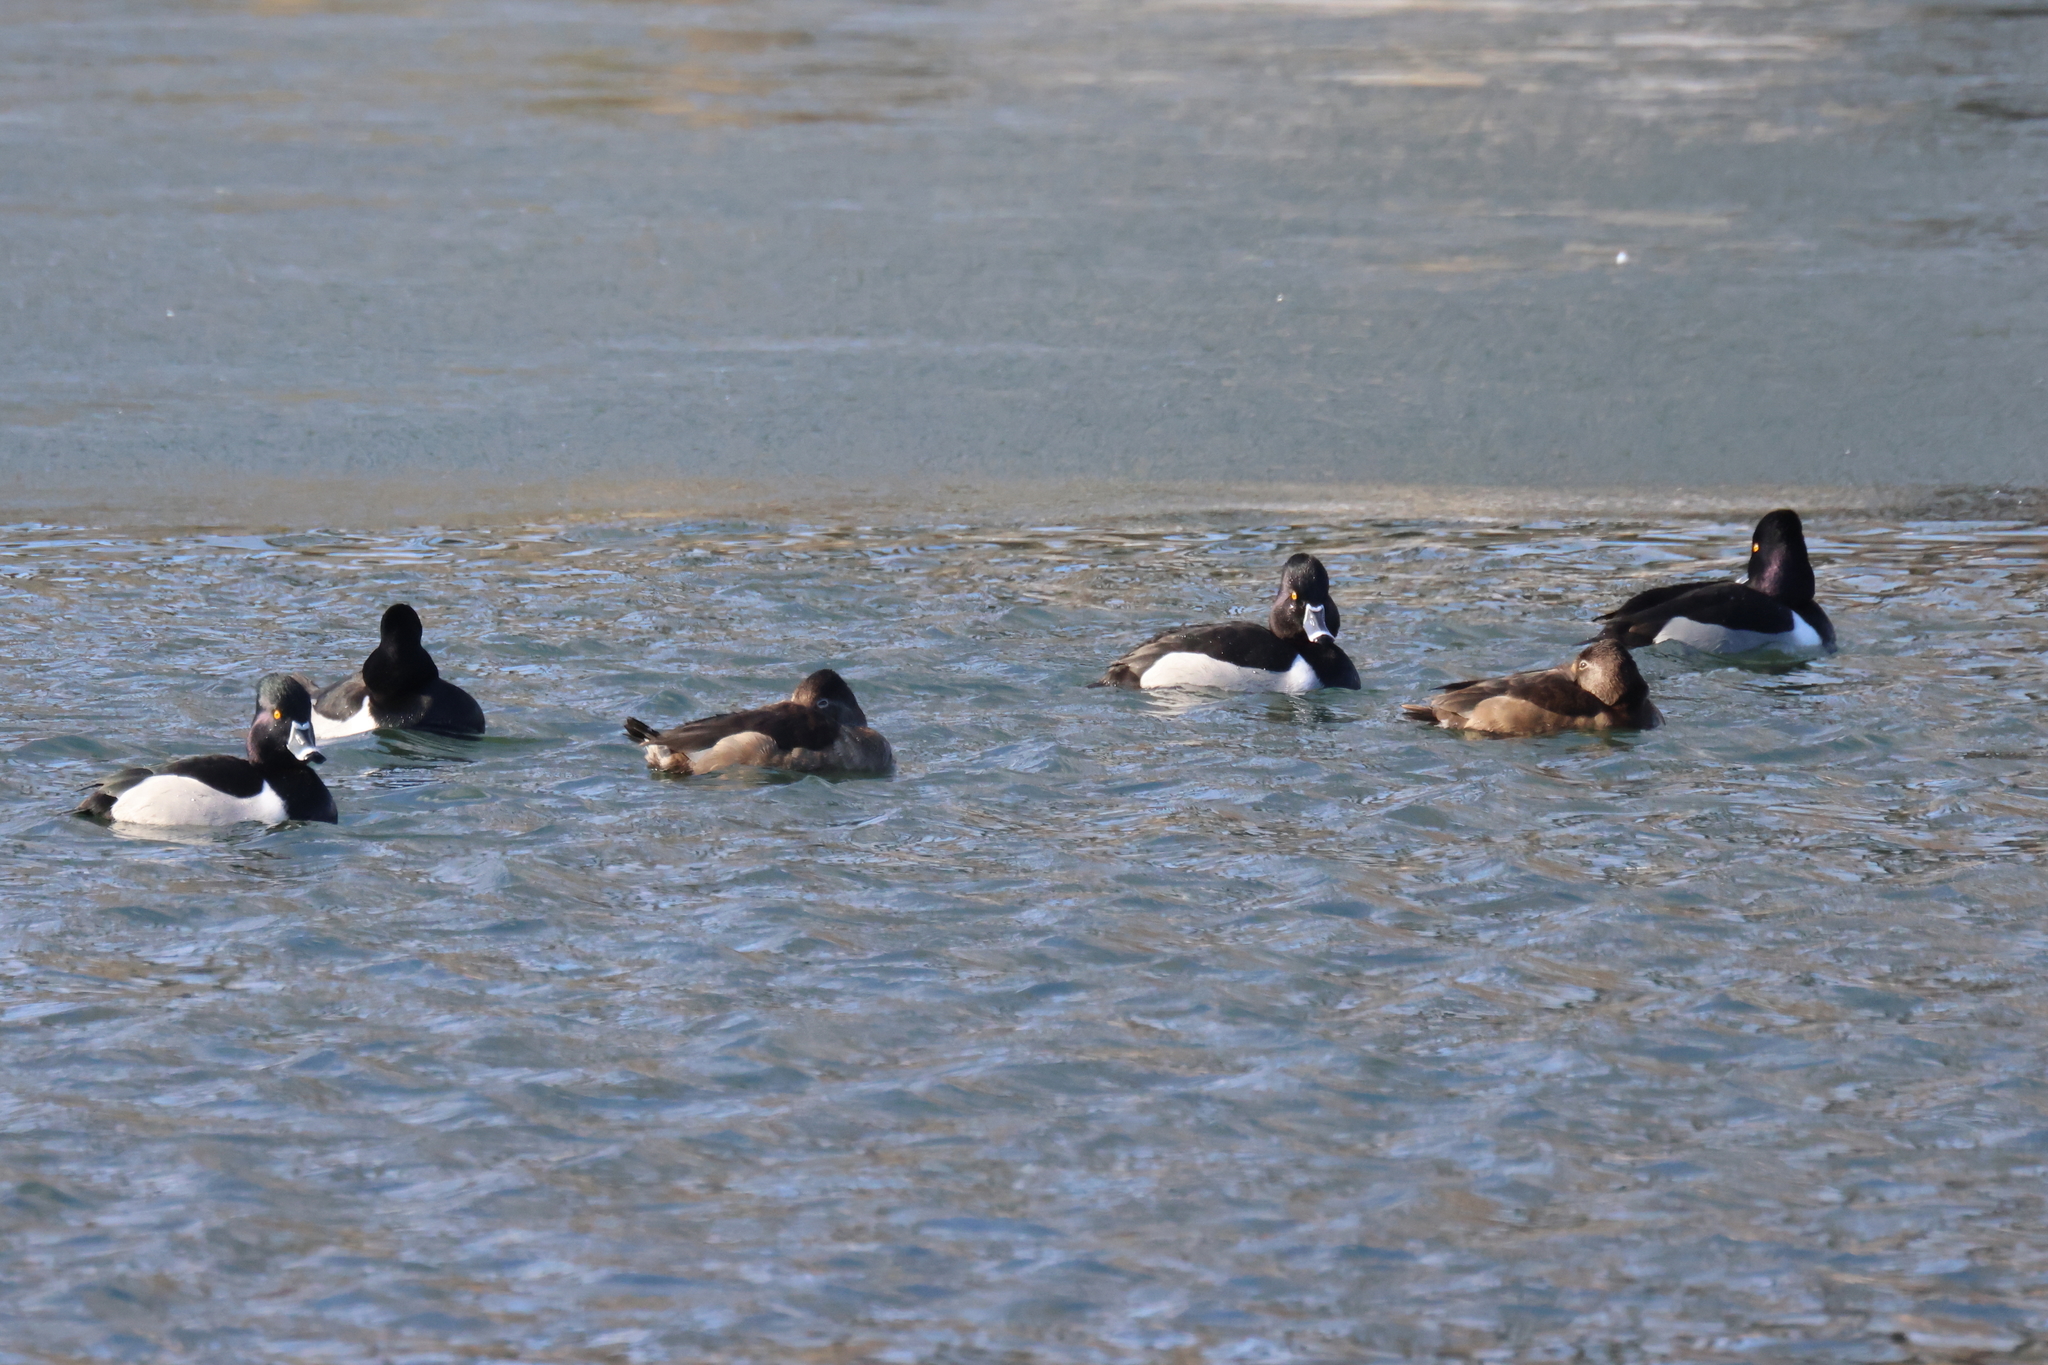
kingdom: Animalia
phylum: Chordata
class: Aves
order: Anseriformes
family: Anatidae
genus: Aythya
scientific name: Aythya collaris
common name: Ring-necked duck
